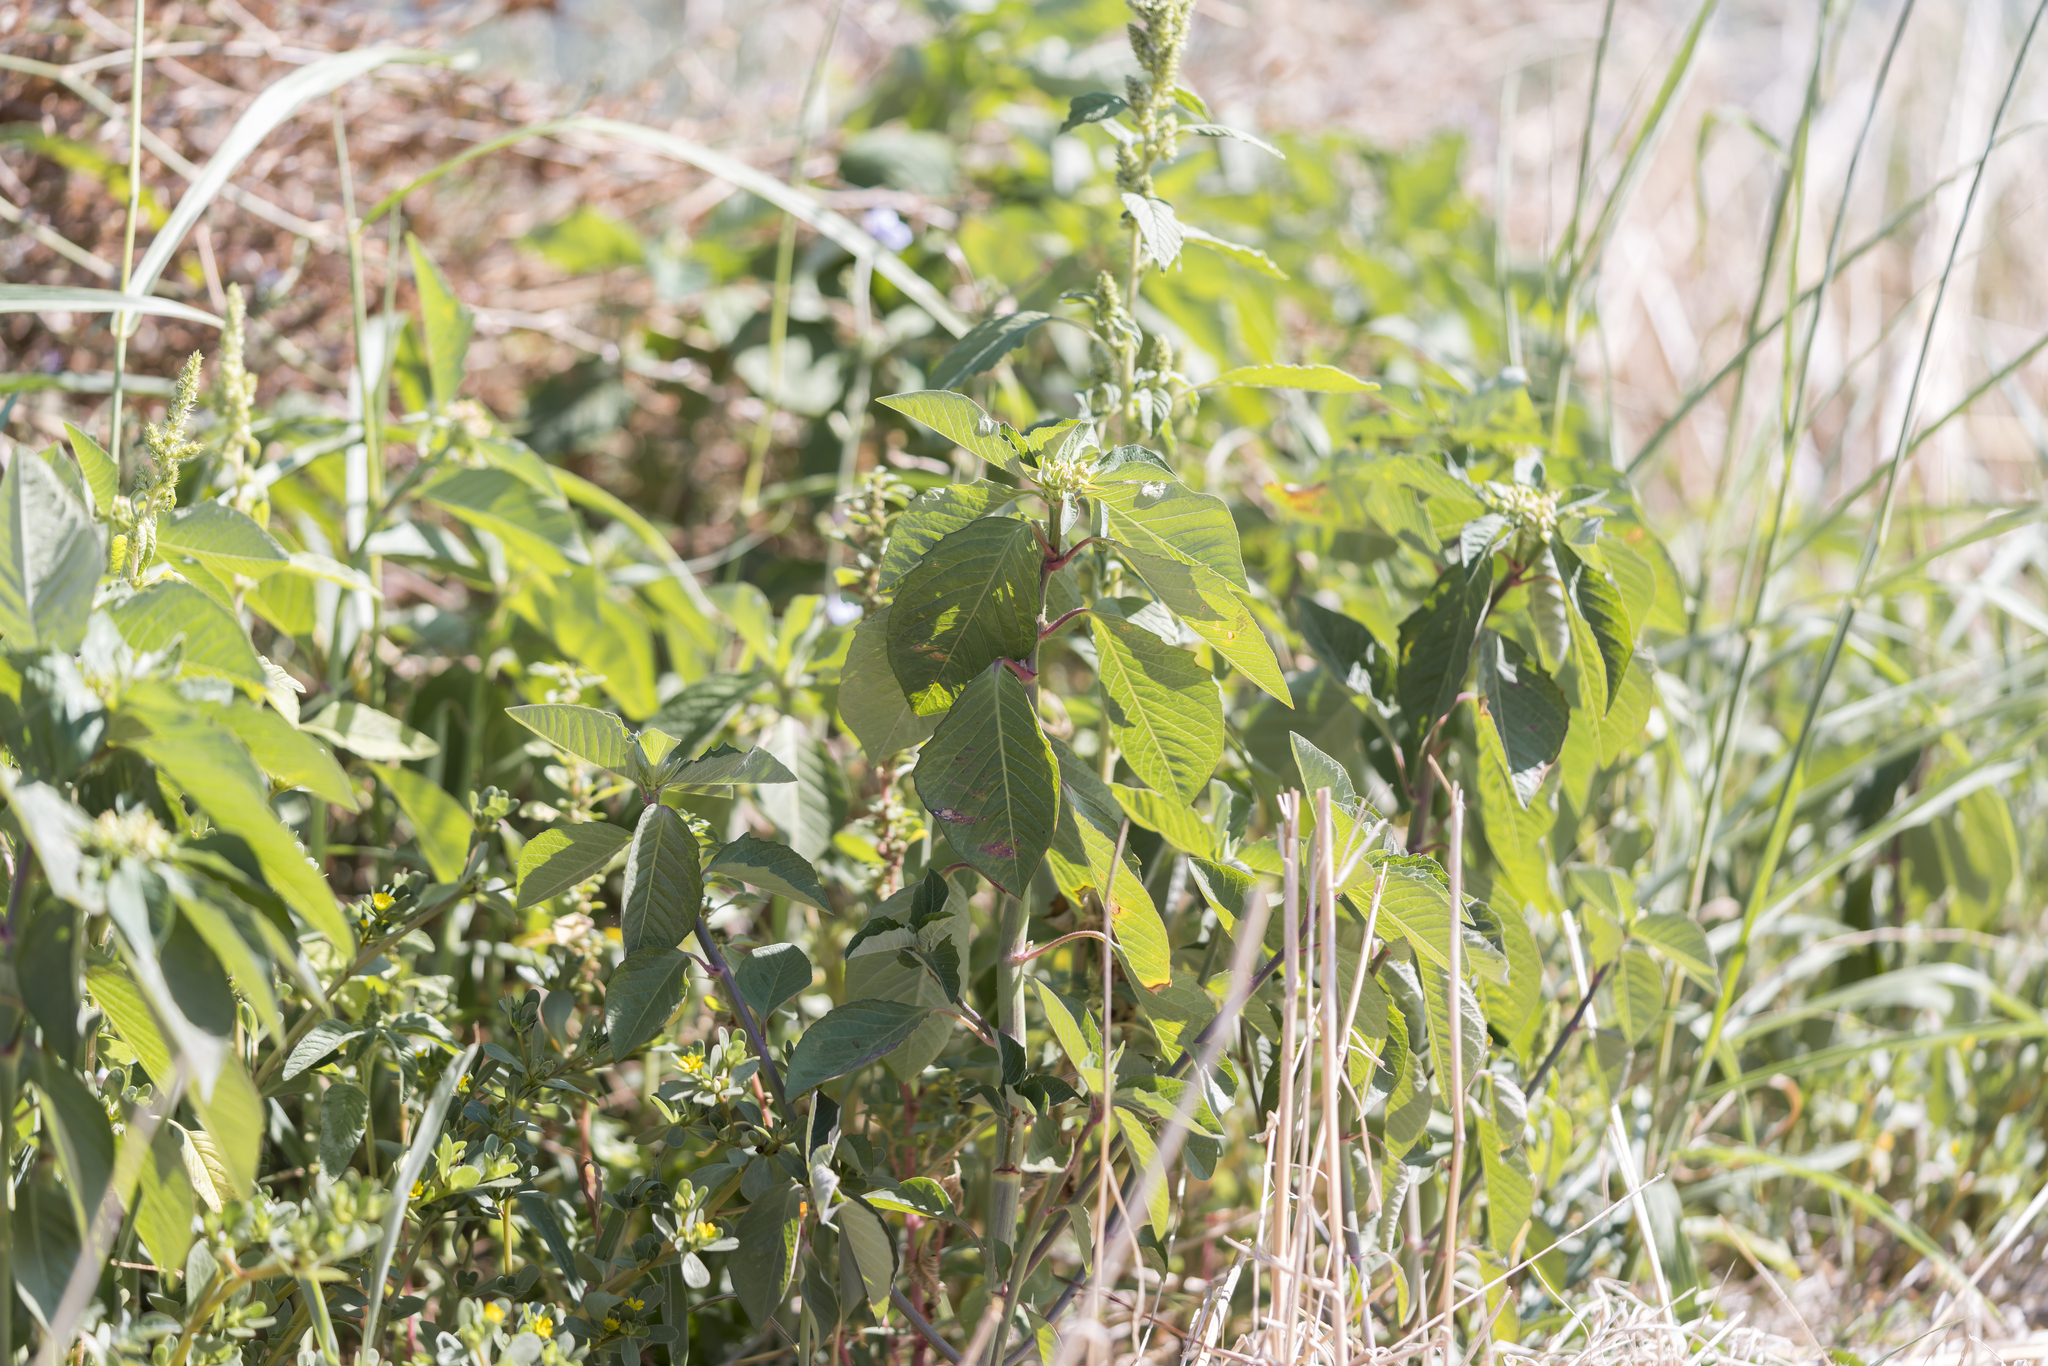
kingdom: Plantae
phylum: Tracheophyta
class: Magnoliopsida
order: Malpighiales
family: Euphorbiaceae
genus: Euphorbia
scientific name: Euphorbia heterophylla
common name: Mexican fireplant
